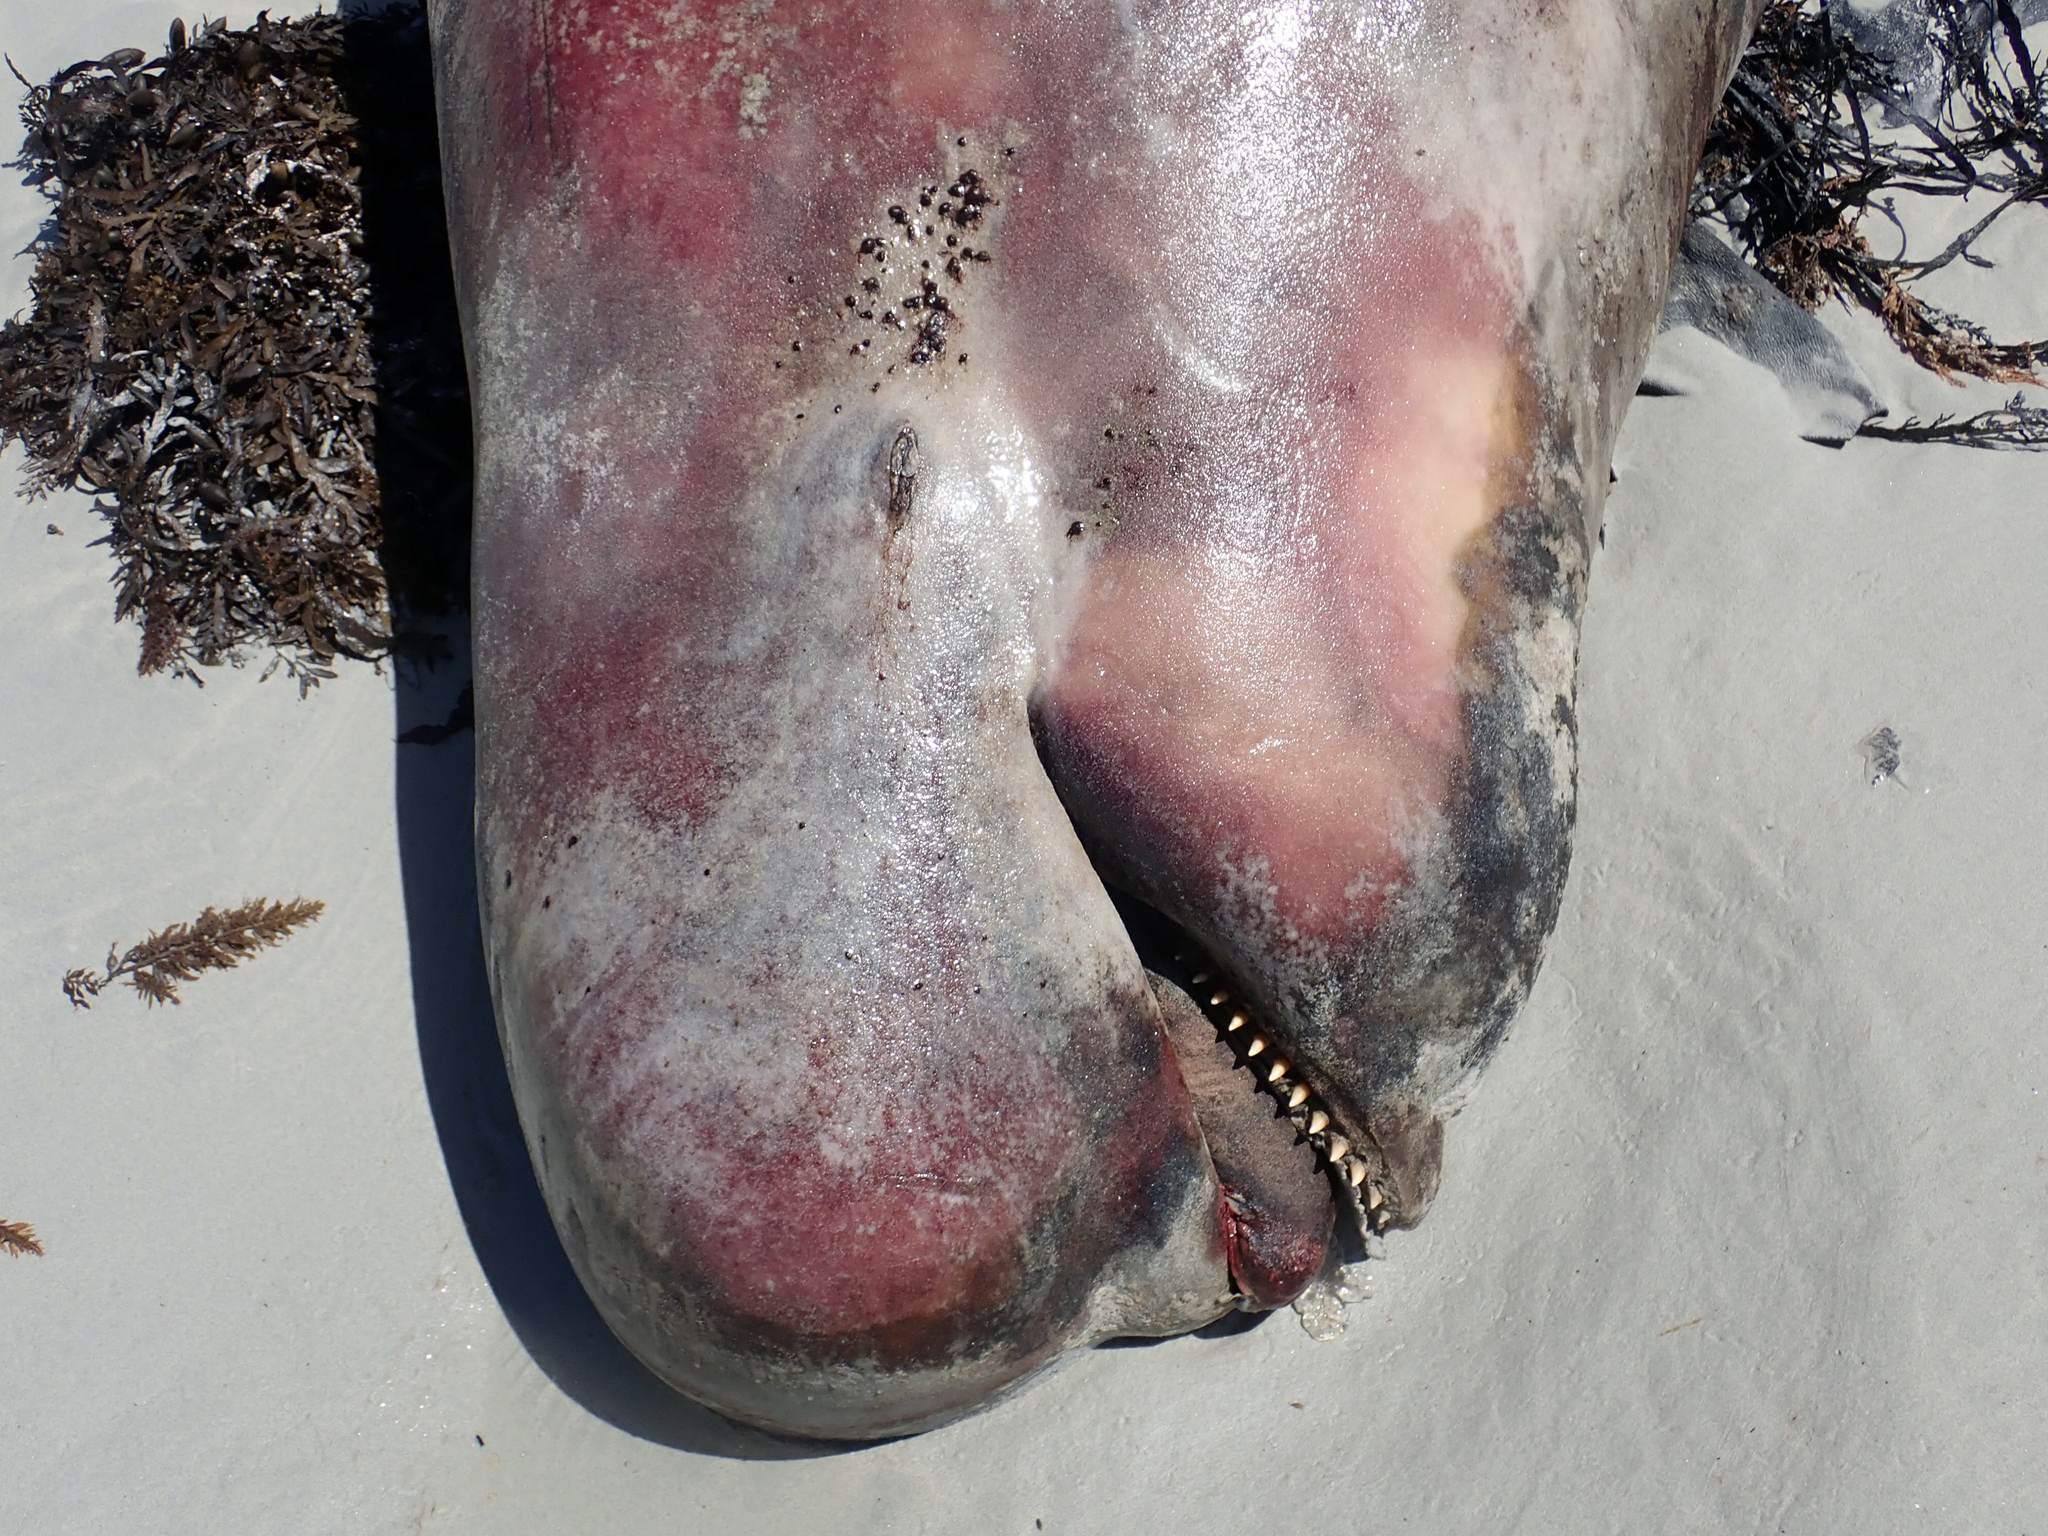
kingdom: Animalia
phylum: Chordata
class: Mammalia
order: Cetacea
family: Delphinidae
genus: Globicephala
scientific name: Globicephala melas
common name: Long-finned pilot whale
